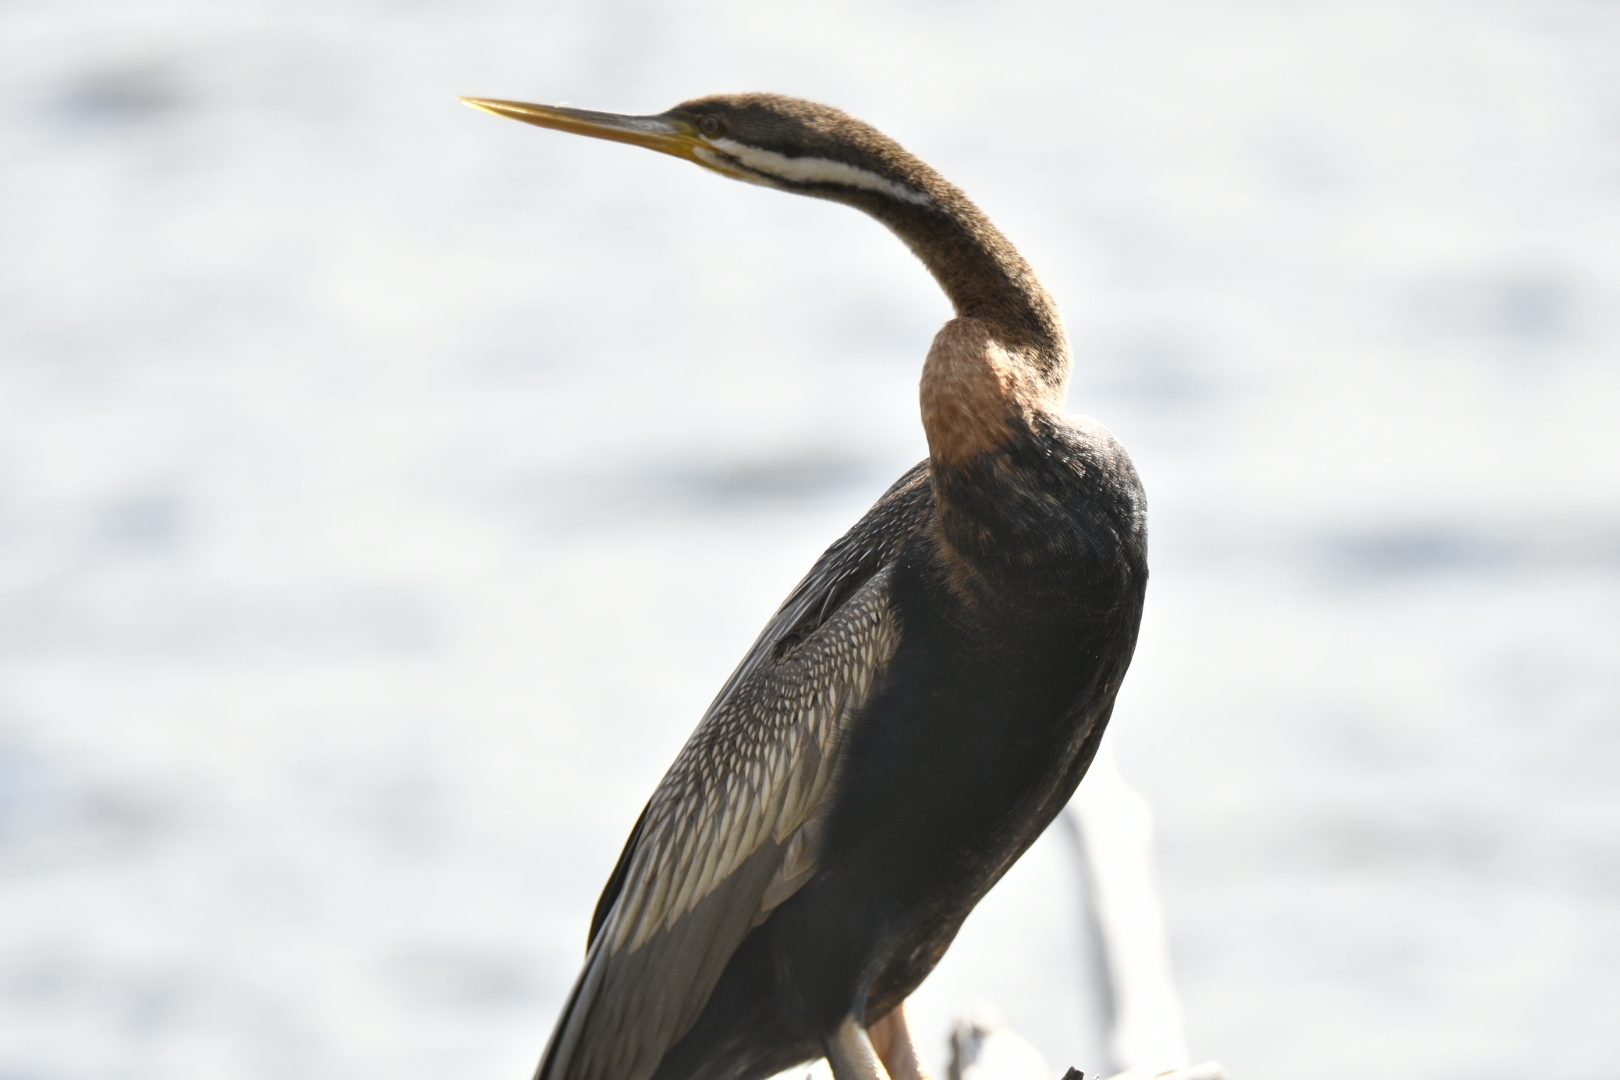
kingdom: Animalia
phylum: Chordata
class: Aves
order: Suliformes
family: Anhingidae
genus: Anhinga
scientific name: Anhinga novaehollandiae
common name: Australasian darter
